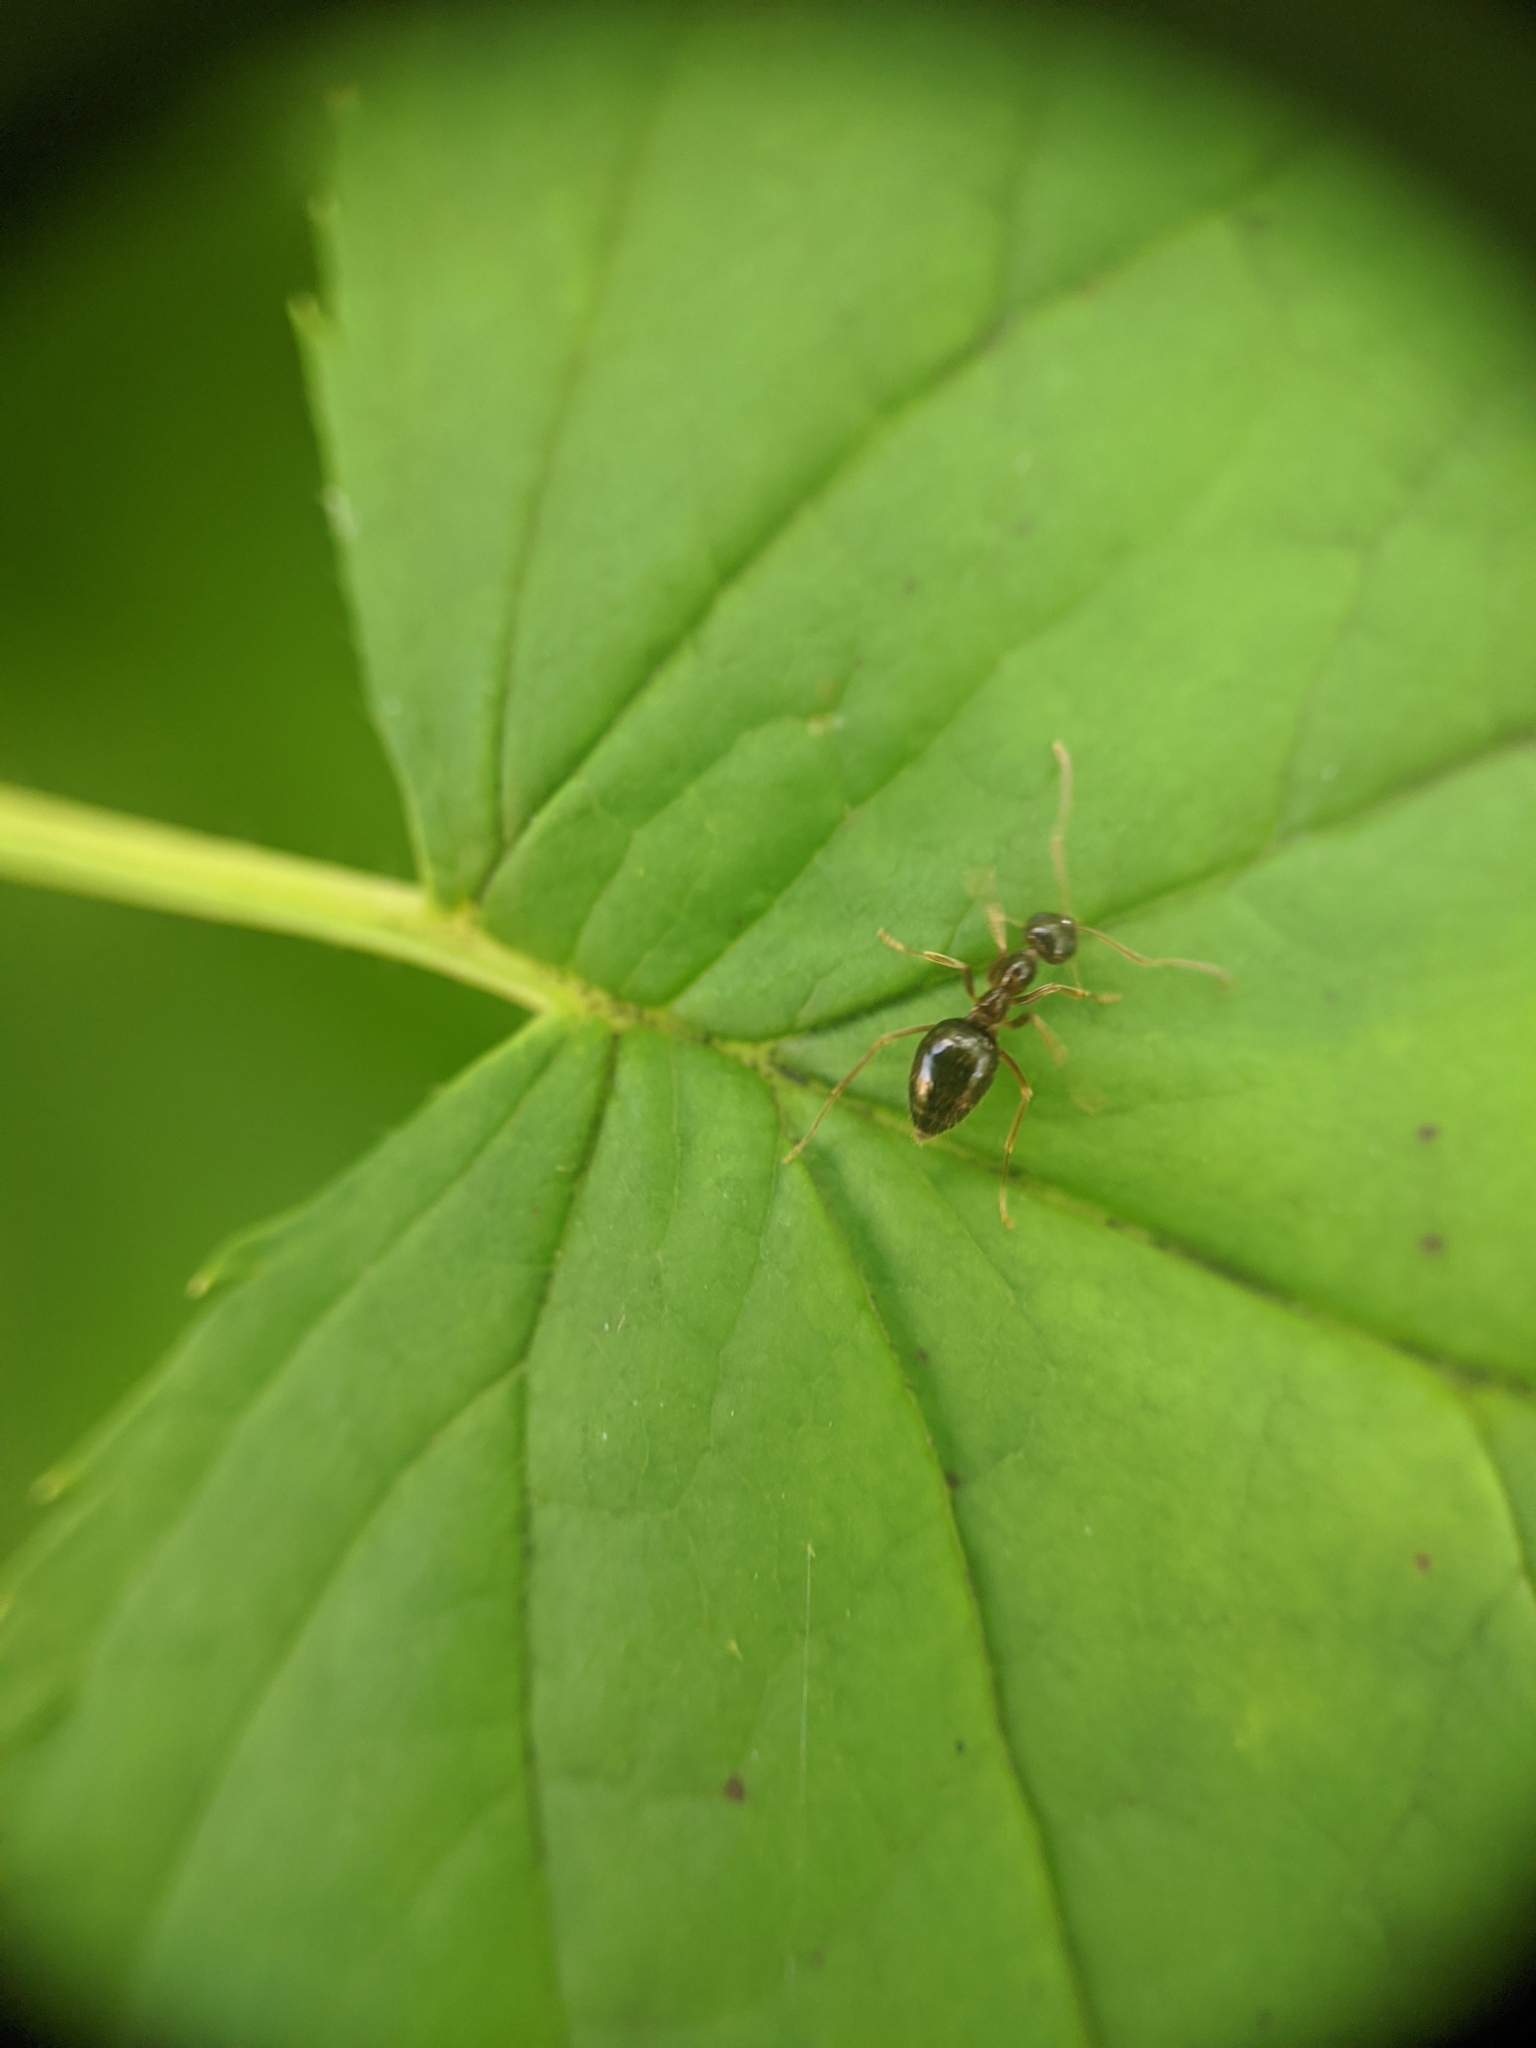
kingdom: Animalia
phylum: Arthropoda
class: Insecta
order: Hymenoptera
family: Formicidae
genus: Prenolepis
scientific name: Prenolepis imparis
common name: Small honey ant
